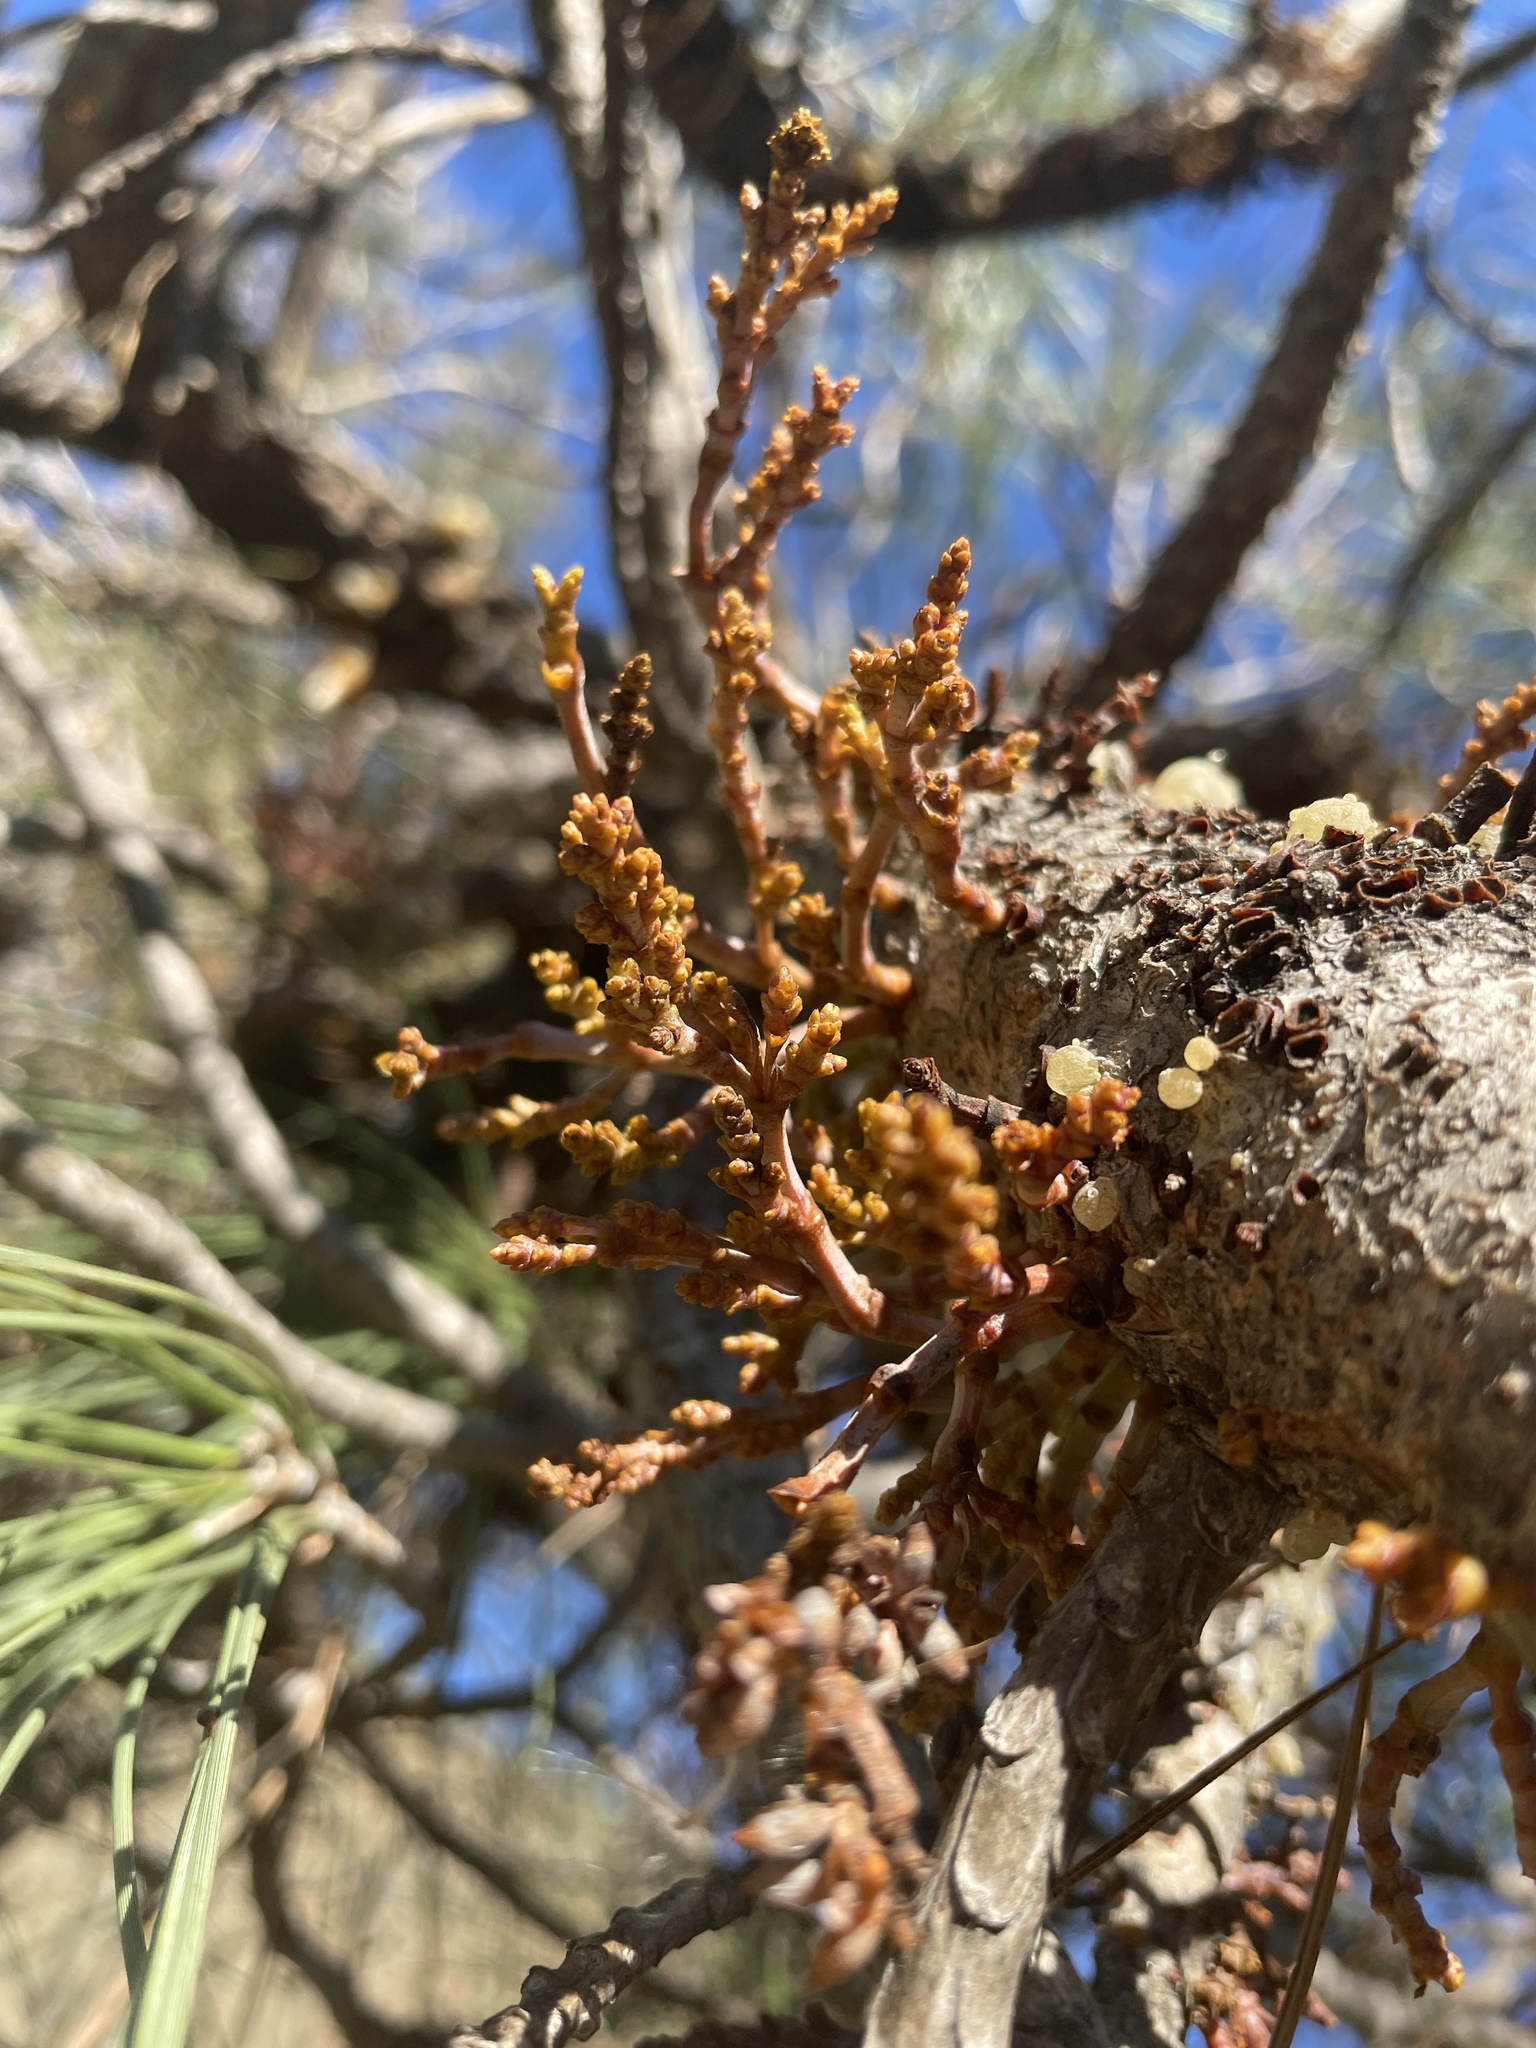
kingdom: Plantae
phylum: Tracheophyta
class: Magnoliopsida
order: Santalales
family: Viscaceae
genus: Arceuthobium
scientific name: Arceuthobium campylopodum
